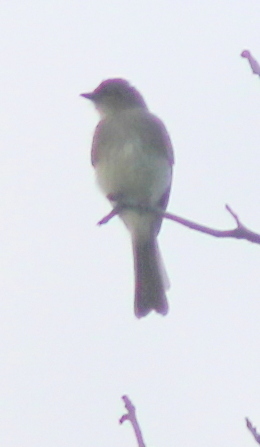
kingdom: Animalia
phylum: Chordata
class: Aves
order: Passeriformes
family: Tyrannidae
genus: Sayornis
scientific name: Sayornis phoebe
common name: Eastern phoebe
